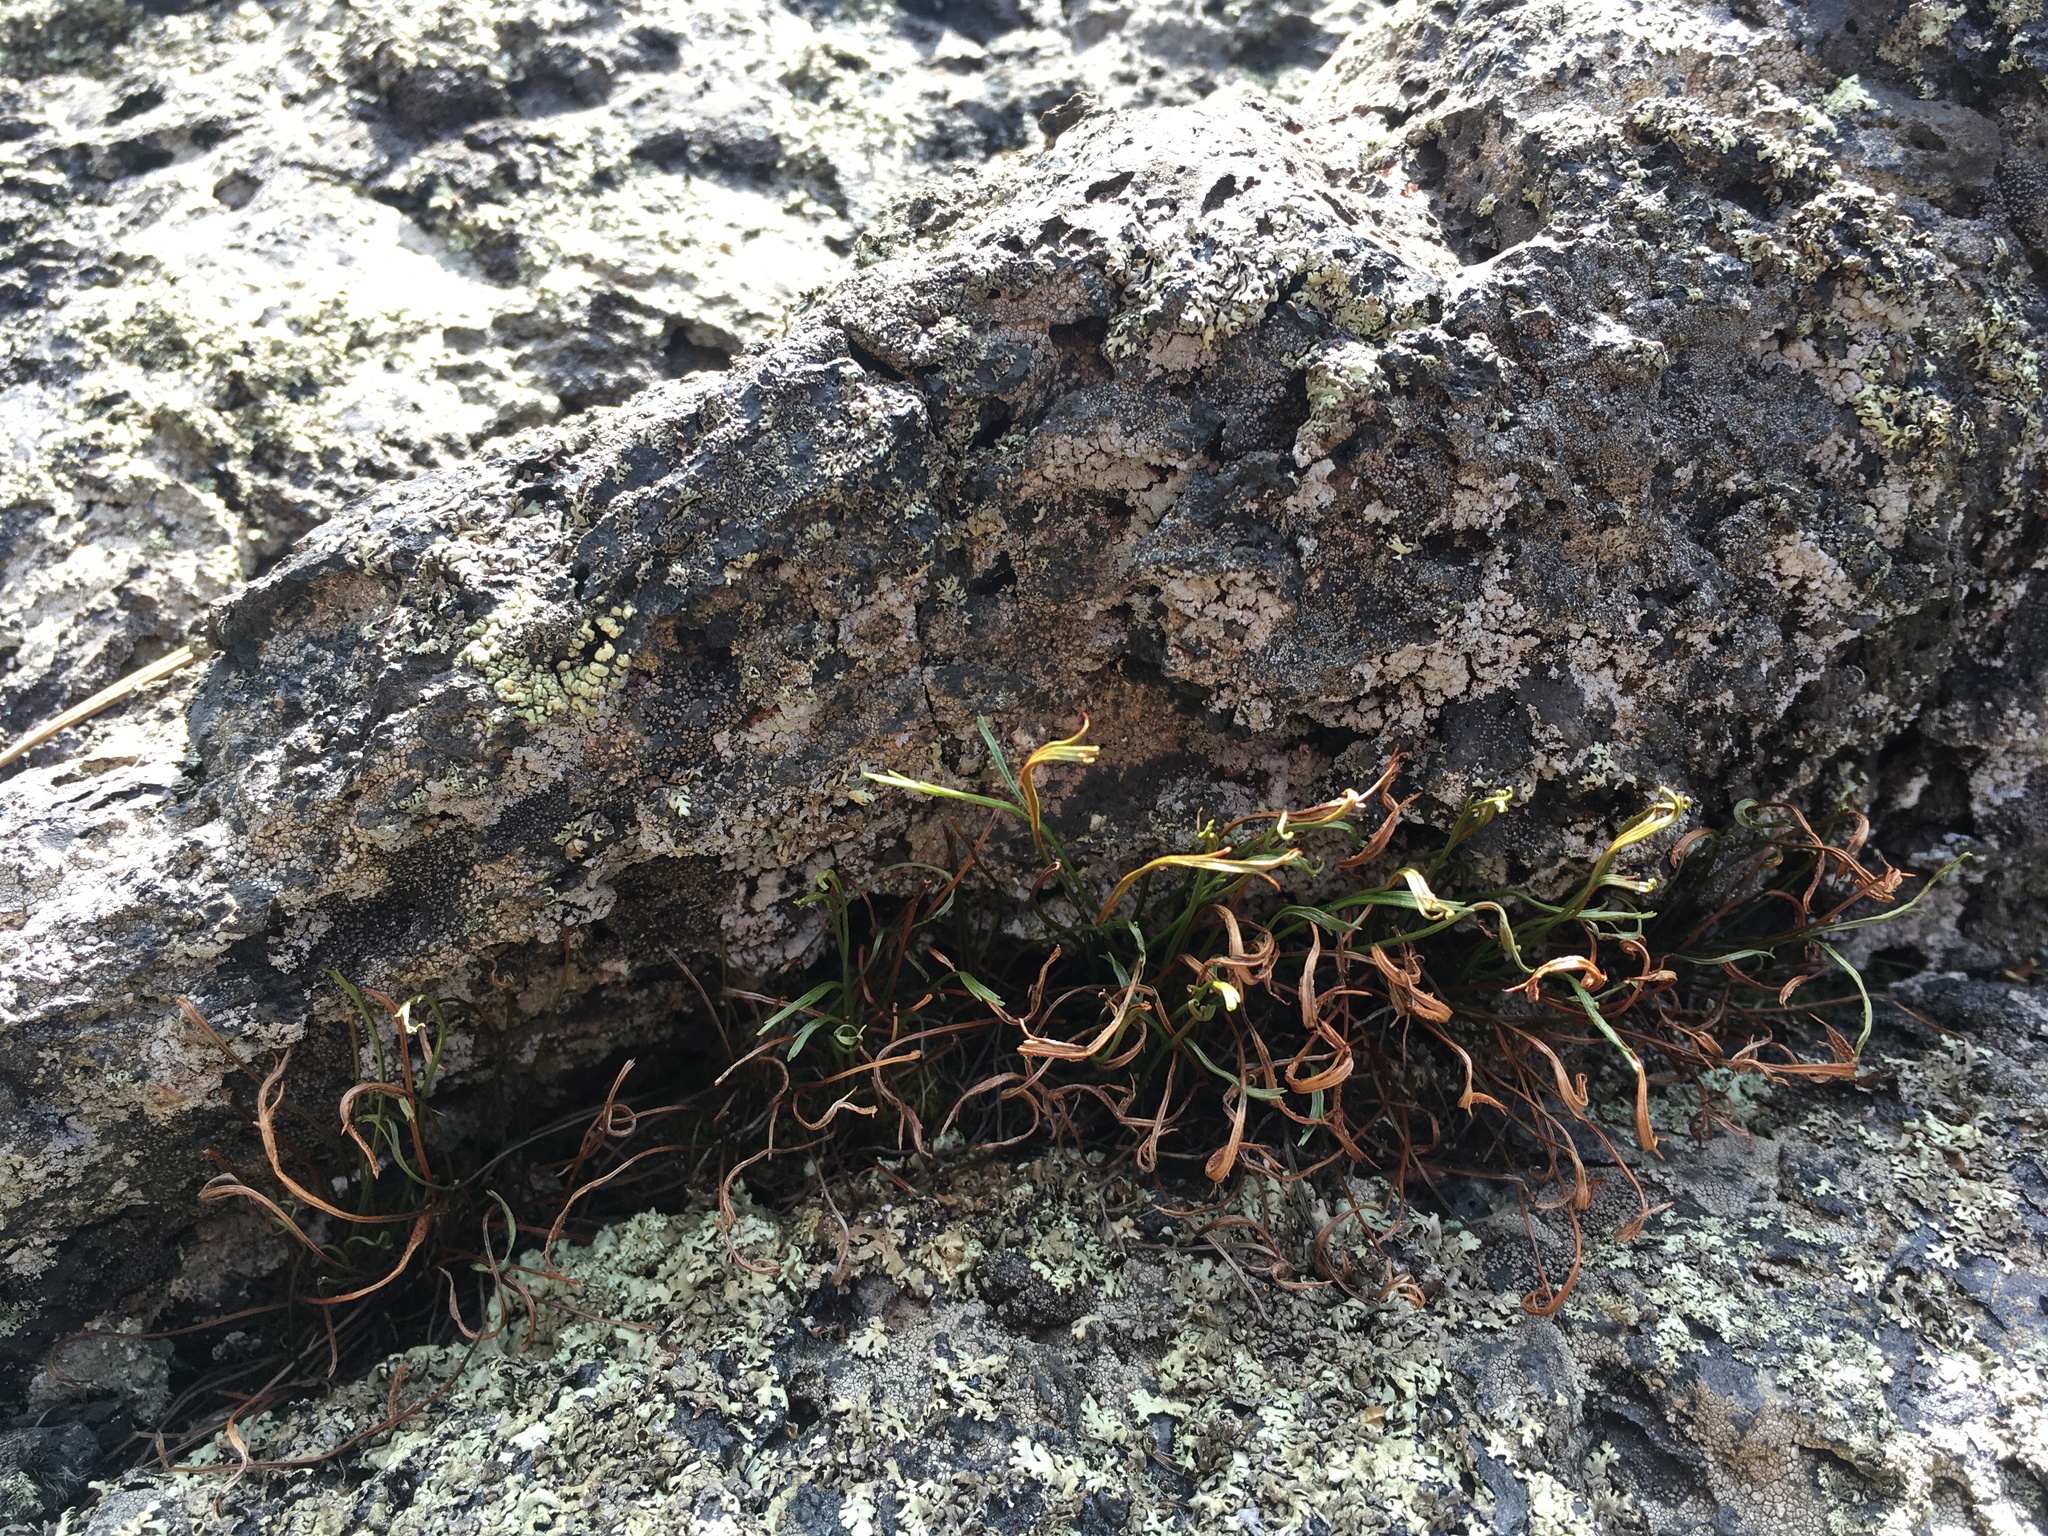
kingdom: Plantae
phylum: Tracheophyta
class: Polypodiopsida
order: Polypodiales
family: Aspleniaceae
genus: Asplenium
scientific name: Asplenium septentrionale
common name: Forked spleenwort
